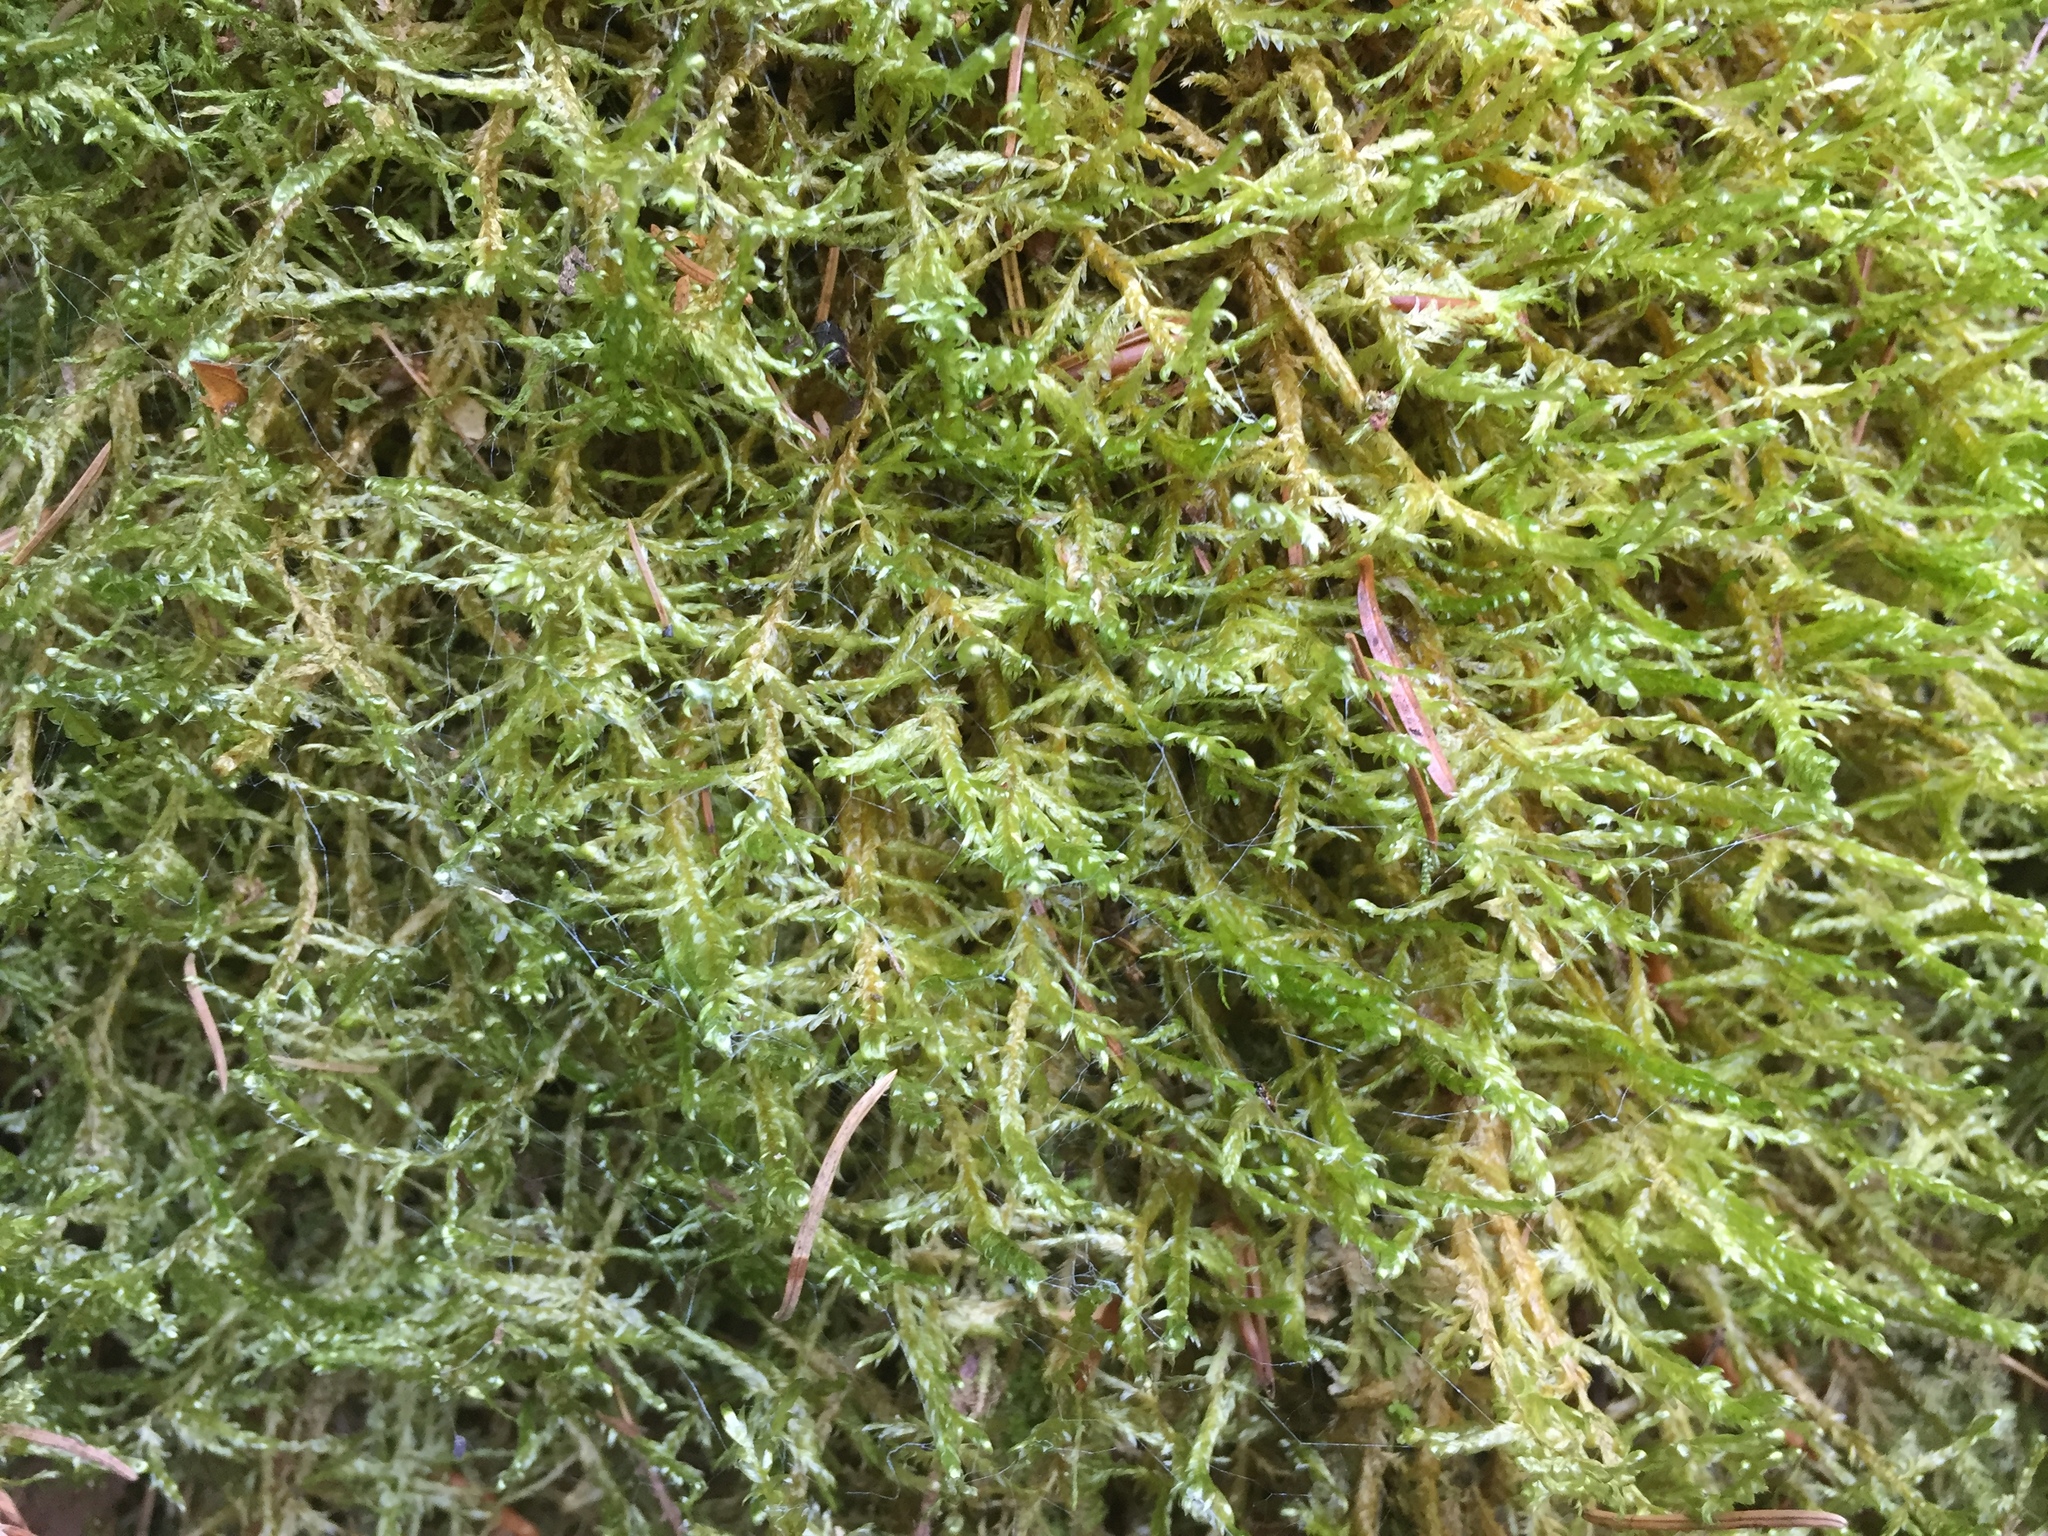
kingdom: Plantae
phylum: Bryophyta
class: Bryopsida
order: Hypnales
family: Neckeraceae
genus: Alleniella
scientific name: Alleniella complanata
